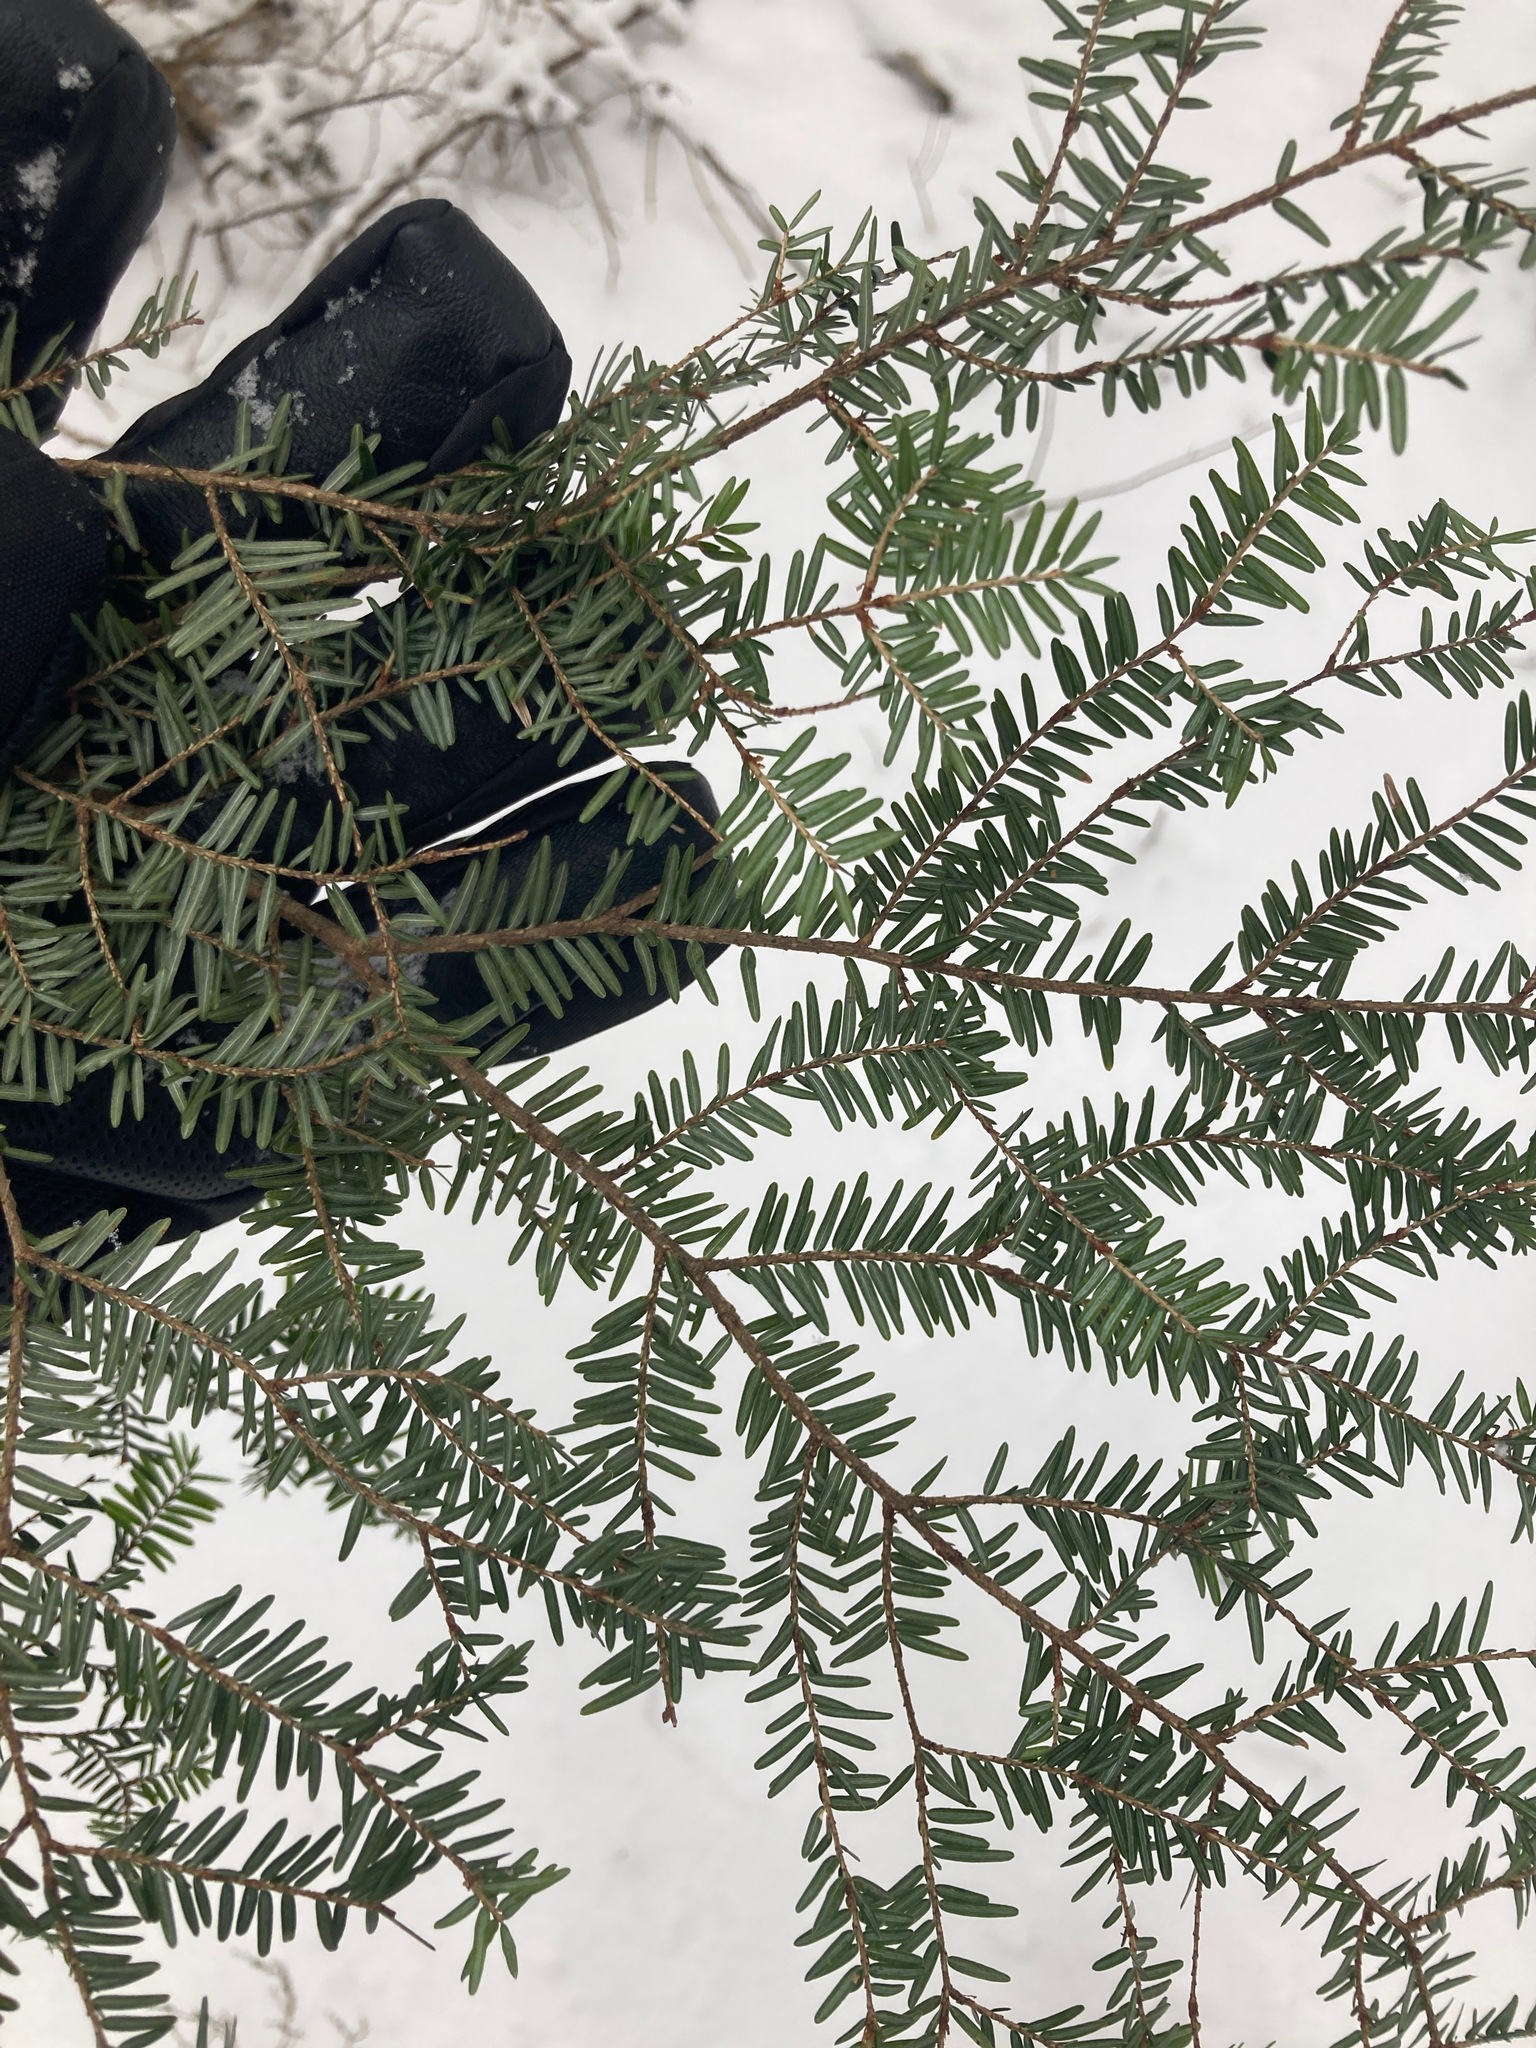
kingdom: Plantae
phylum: Tracheophyta
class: Pinopsida
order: Pinales
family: Pinaceae
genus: Tsuga
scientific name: Tsuga canadensis
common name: Eastern hemlock
